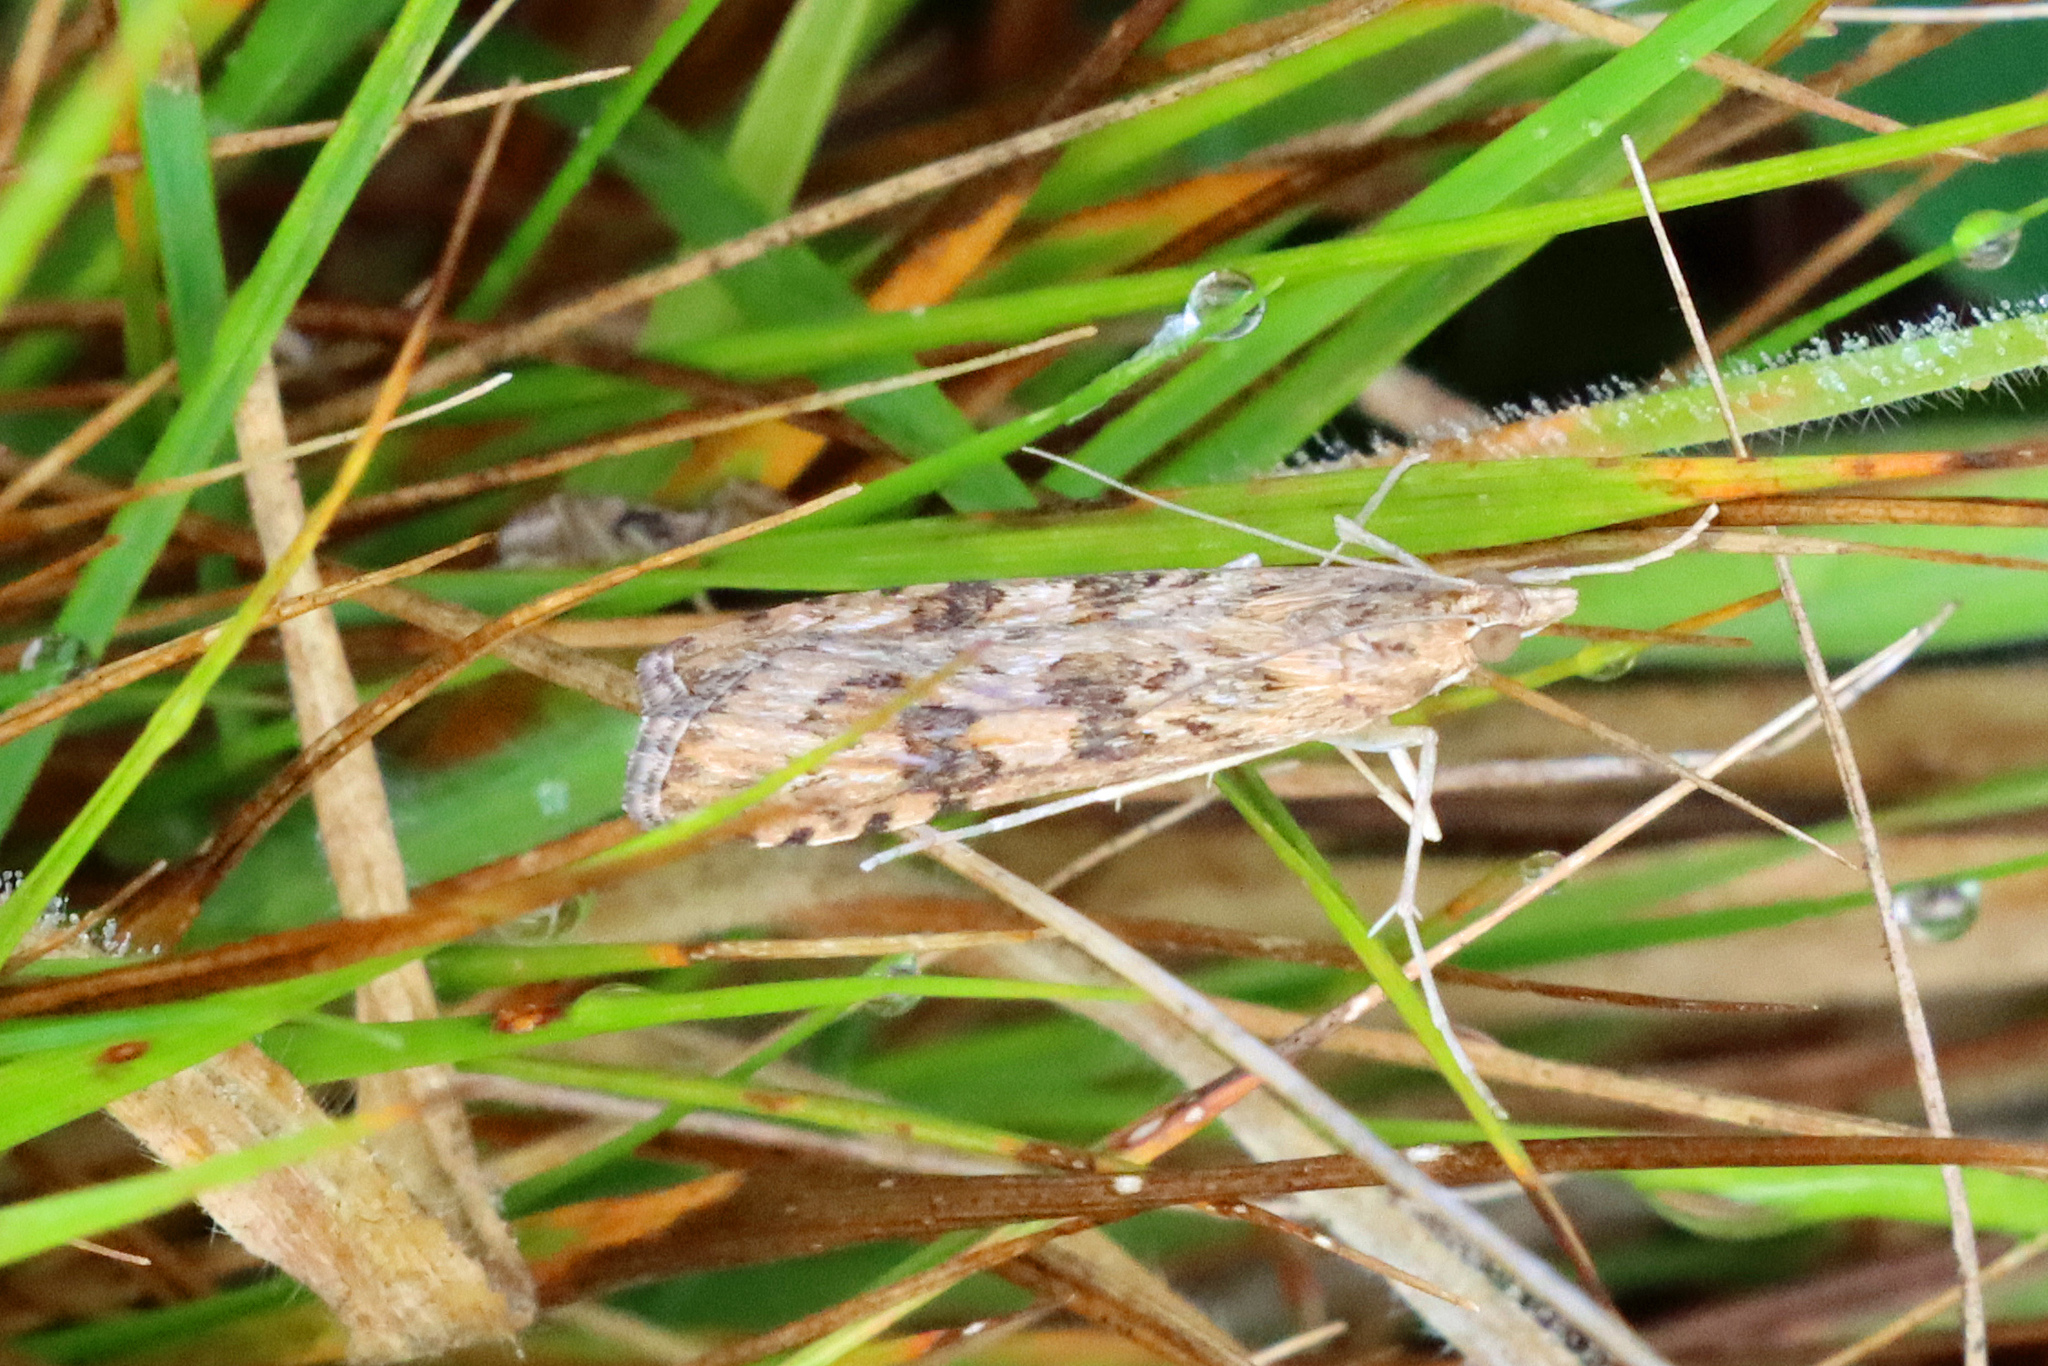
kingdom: Animalia
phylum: Arthropoda
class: Insecta
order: Lepidoptera
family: Crambidae
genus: Nomophila
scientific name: Nomophila noctuella
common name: Rush veneer
